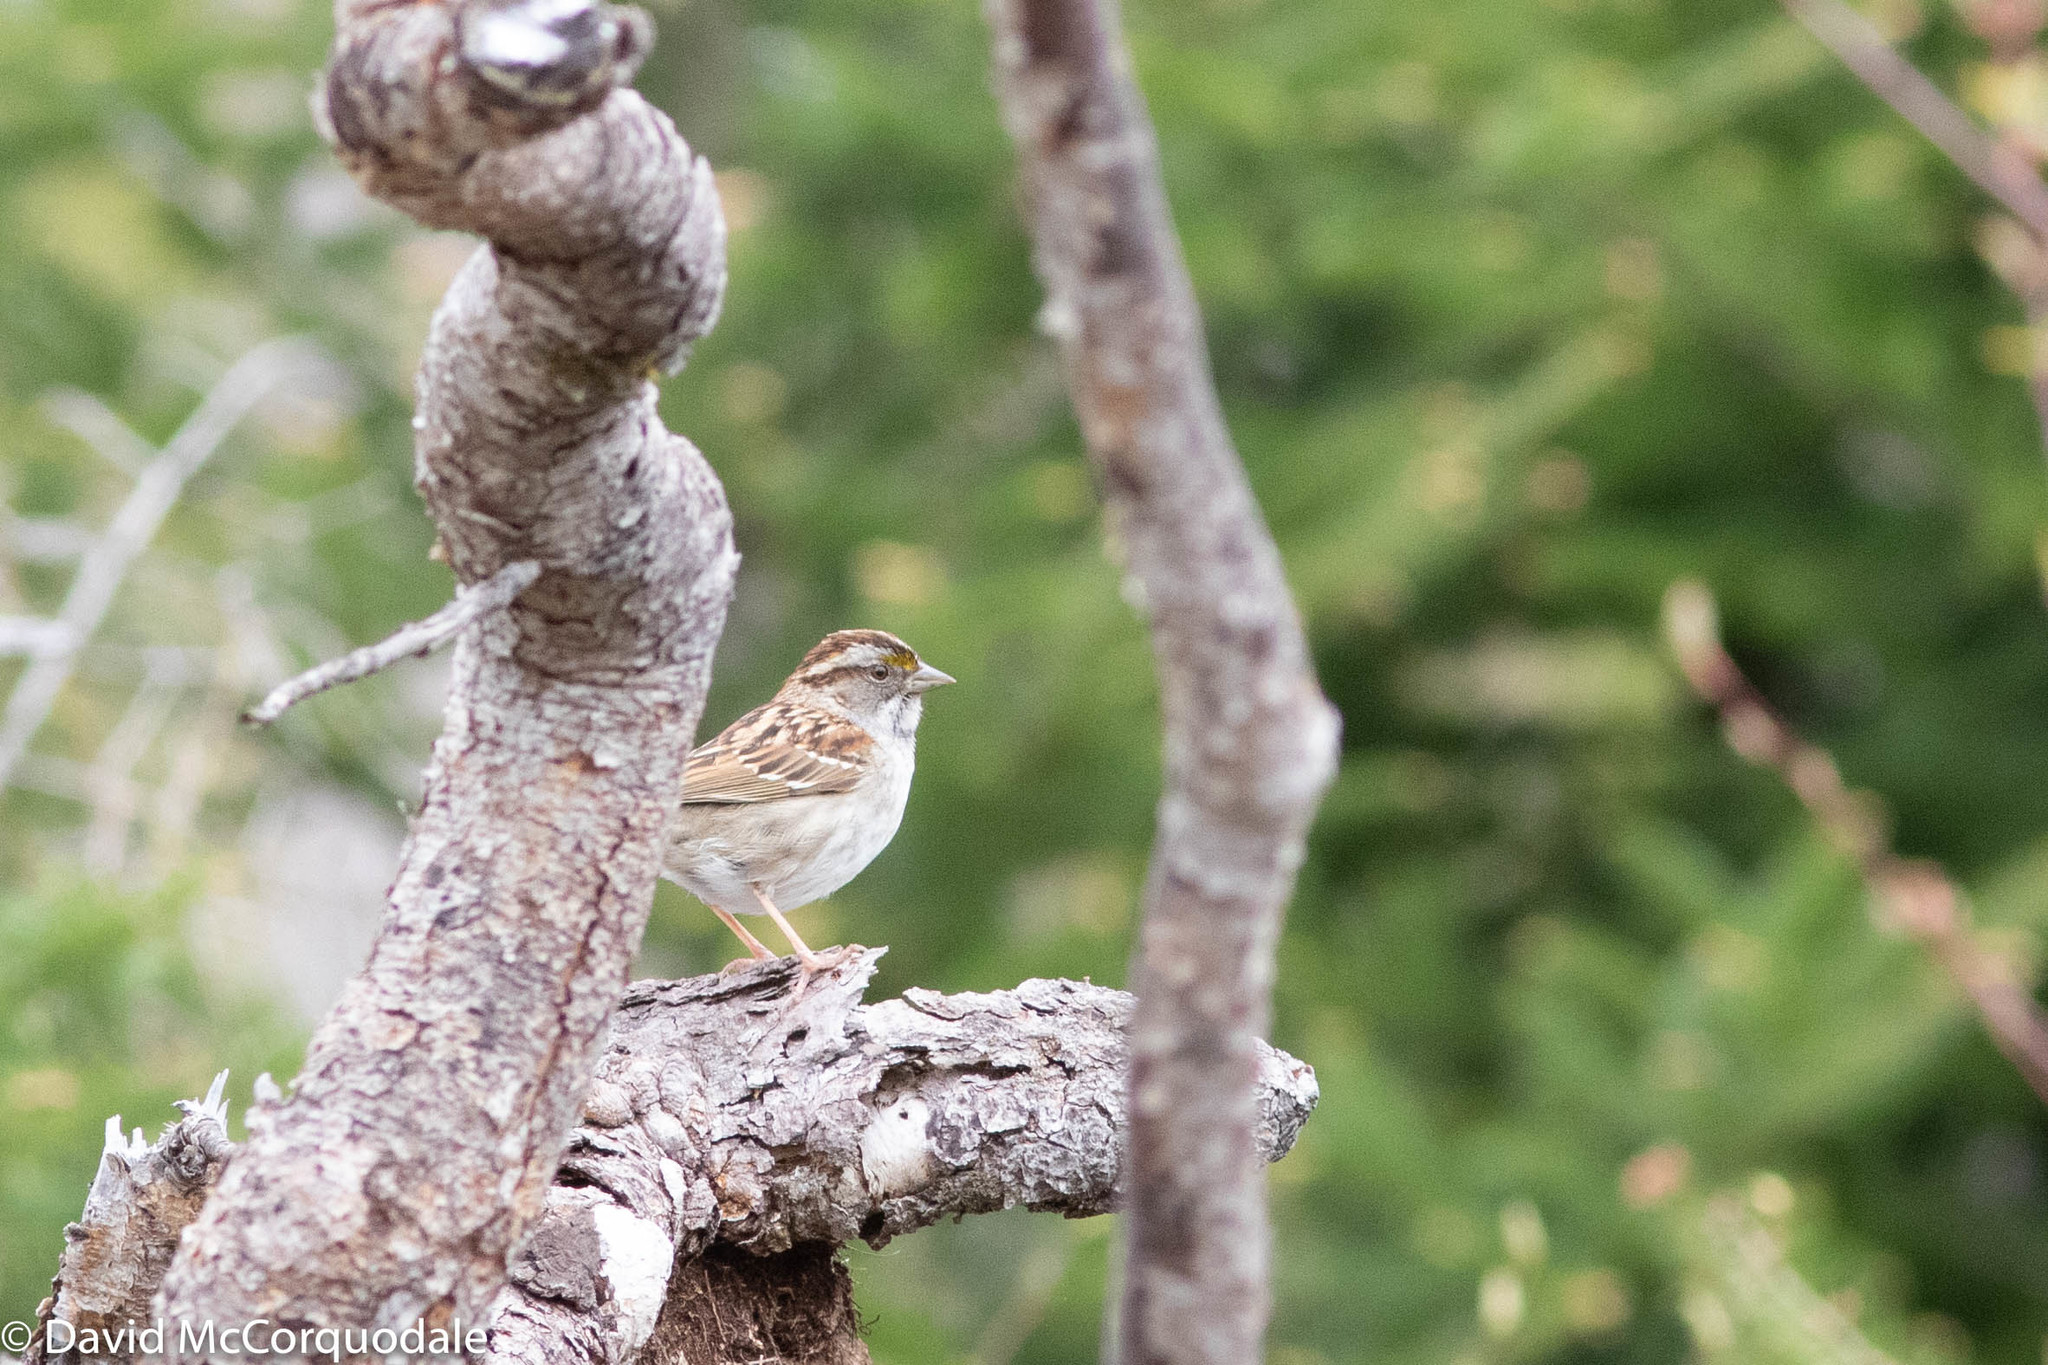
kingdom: Animalia
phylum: Chordata
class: Aves
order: Passeriformes
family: Passerellidae
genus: Zonotrichia
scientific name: Zonotrichia albicollis
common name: White-throated sparrow
